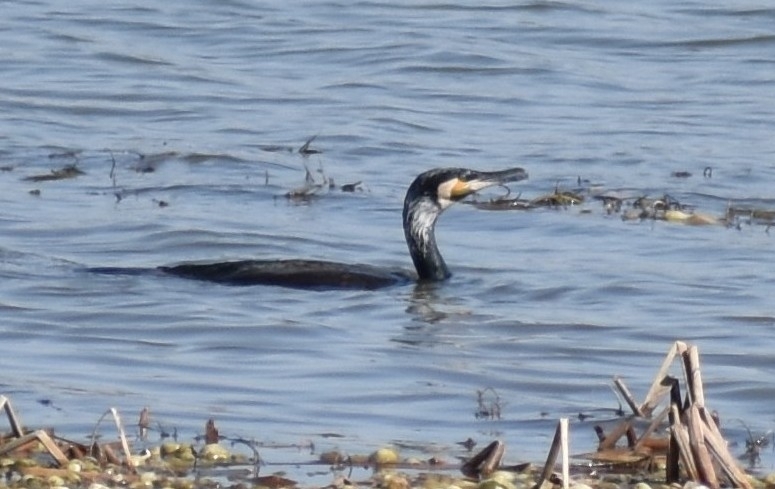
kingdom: Animalia
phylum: Chordata
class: Aves
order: Suliformes
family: Phalacrocoracidae
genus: Phalacrocorax
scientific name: Phalacrocorax carbo
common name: Great cormorant
